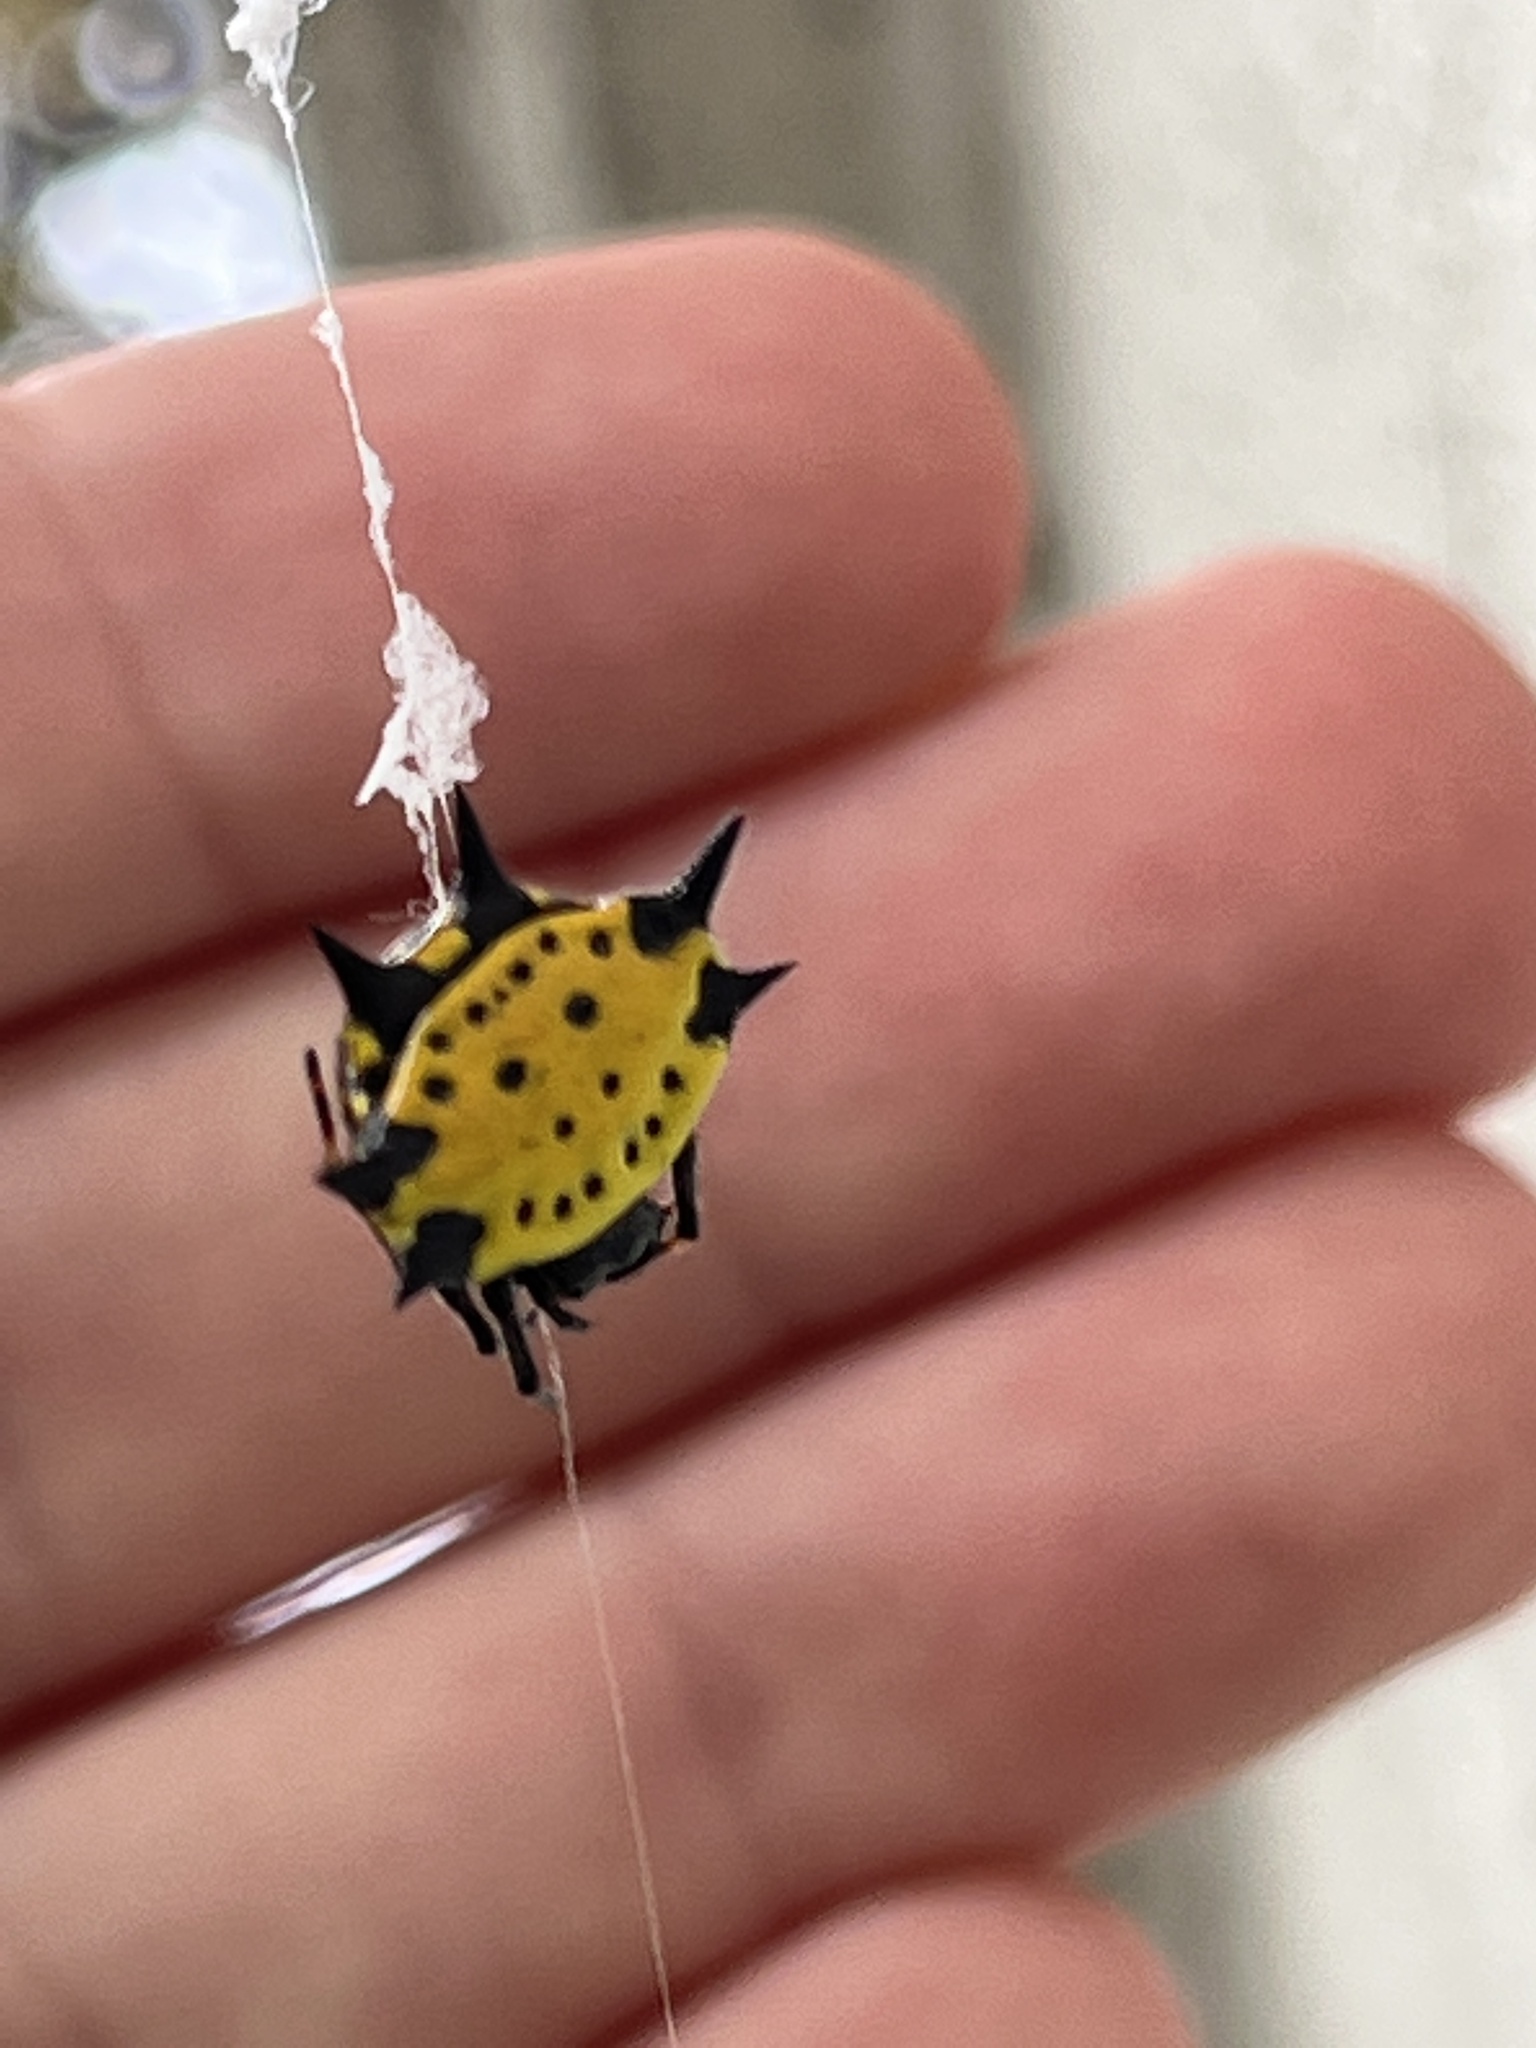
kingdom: Animalia
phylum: Arthropoda
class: Arachnida
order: Araneae
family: Araneidae
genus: Gasteracantha
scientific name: Gasteracantha cancriformis
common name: Orb weavers
